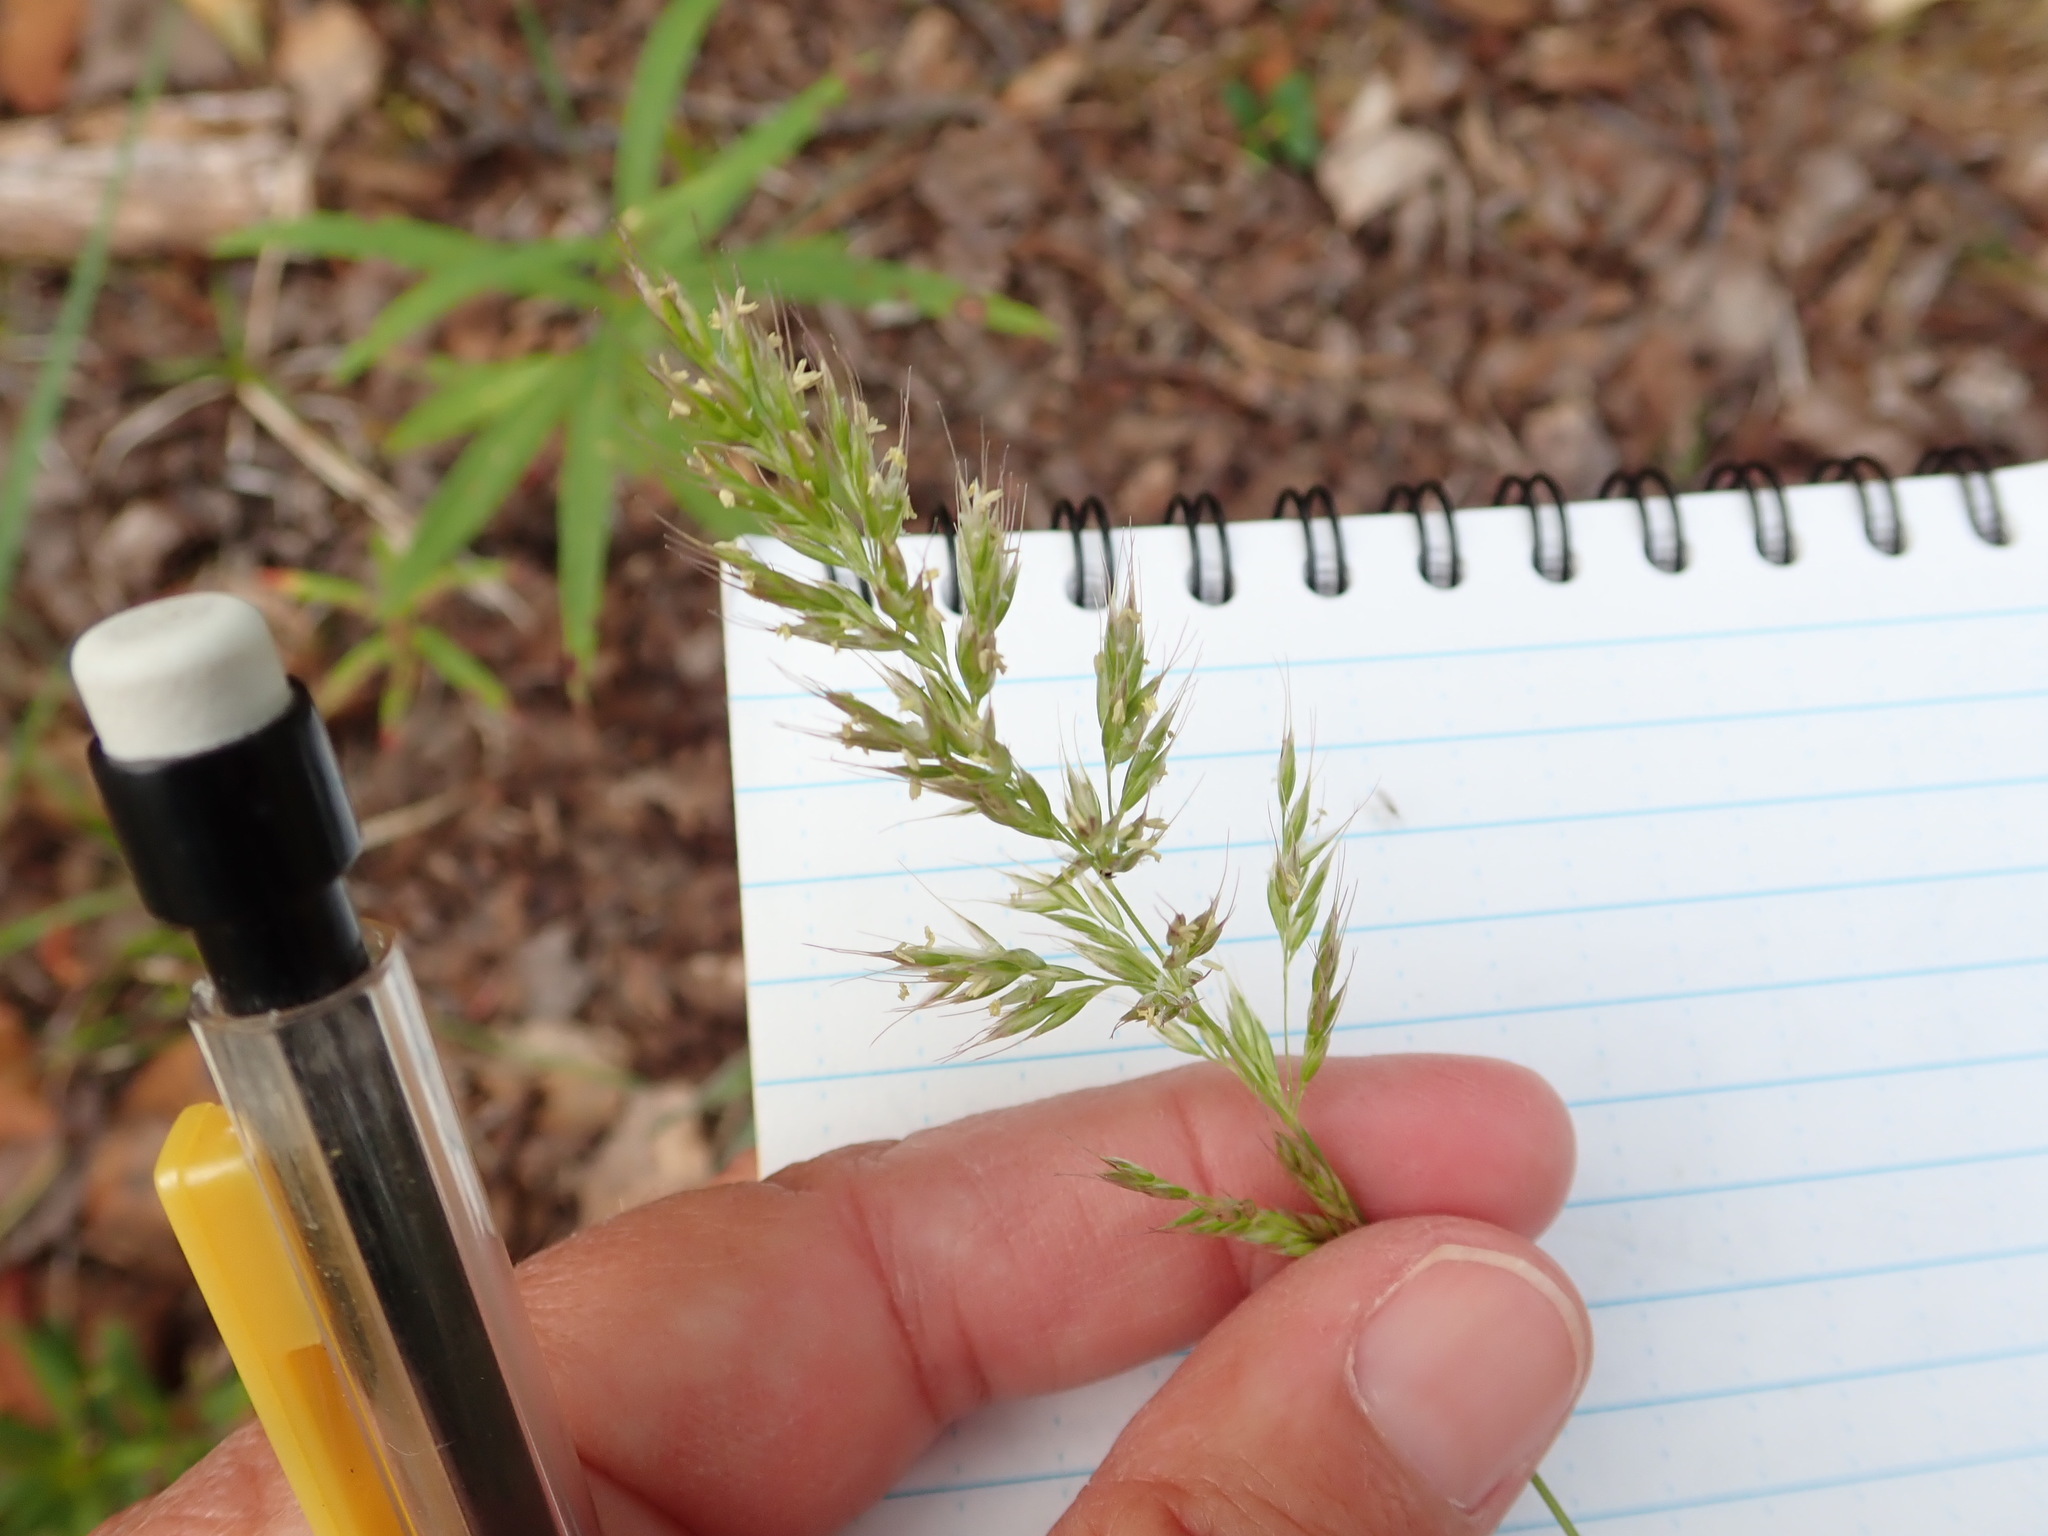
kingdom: Plantae
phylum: Tracheophyta
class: Liliopsida
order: Poales
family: Poaceae
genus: Calamagrostis
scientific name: Calamagrostis purpurascens
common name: Purple reedgrass
